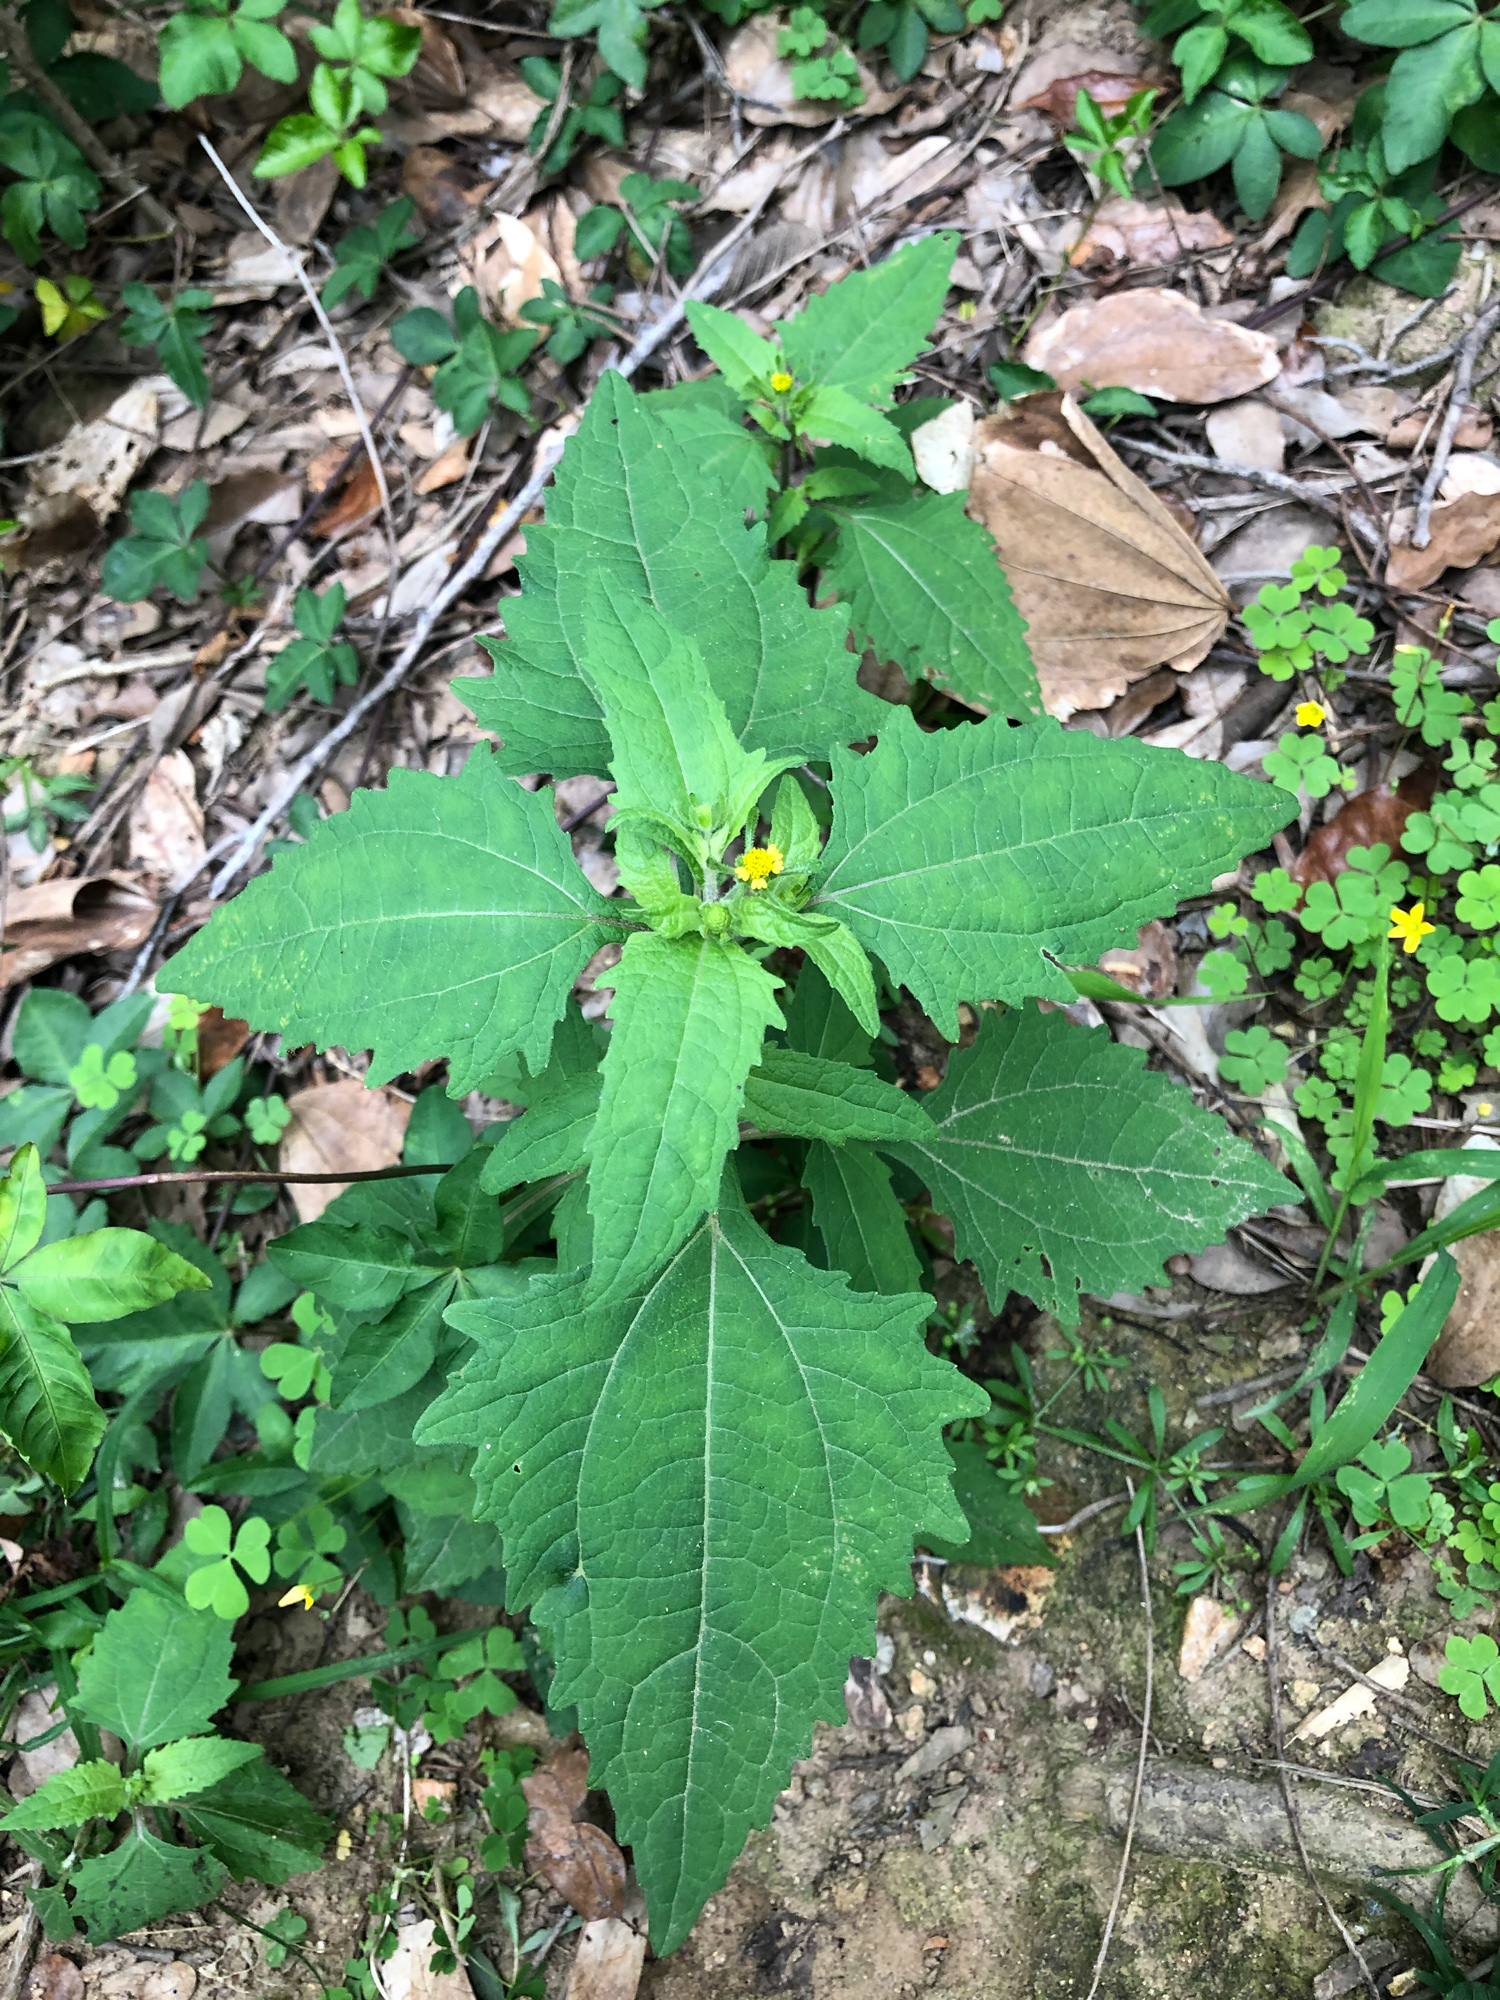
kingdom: Plantae
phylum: Tracheophyta
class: Magnoliopsida
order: Asterales
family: Asteraceae
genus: Sigesbeckia
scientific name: Sigesbeckia orientalis
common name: Eastern st paul's-wort
